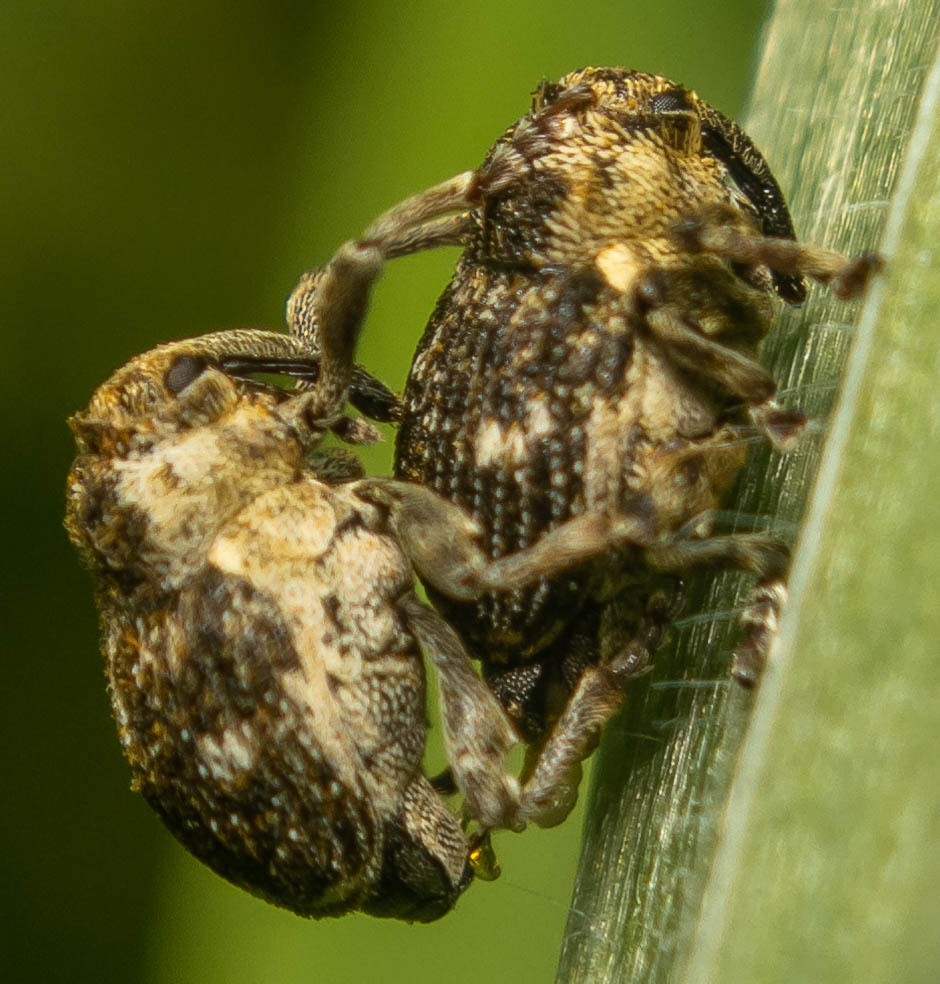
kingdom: Animalia
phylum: Arthropoda
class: Insecta
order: Coleoptera
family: Curculionidae
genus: Nedyus
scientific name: Nedyus quadrimaculatus
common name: Small nettle weevil
